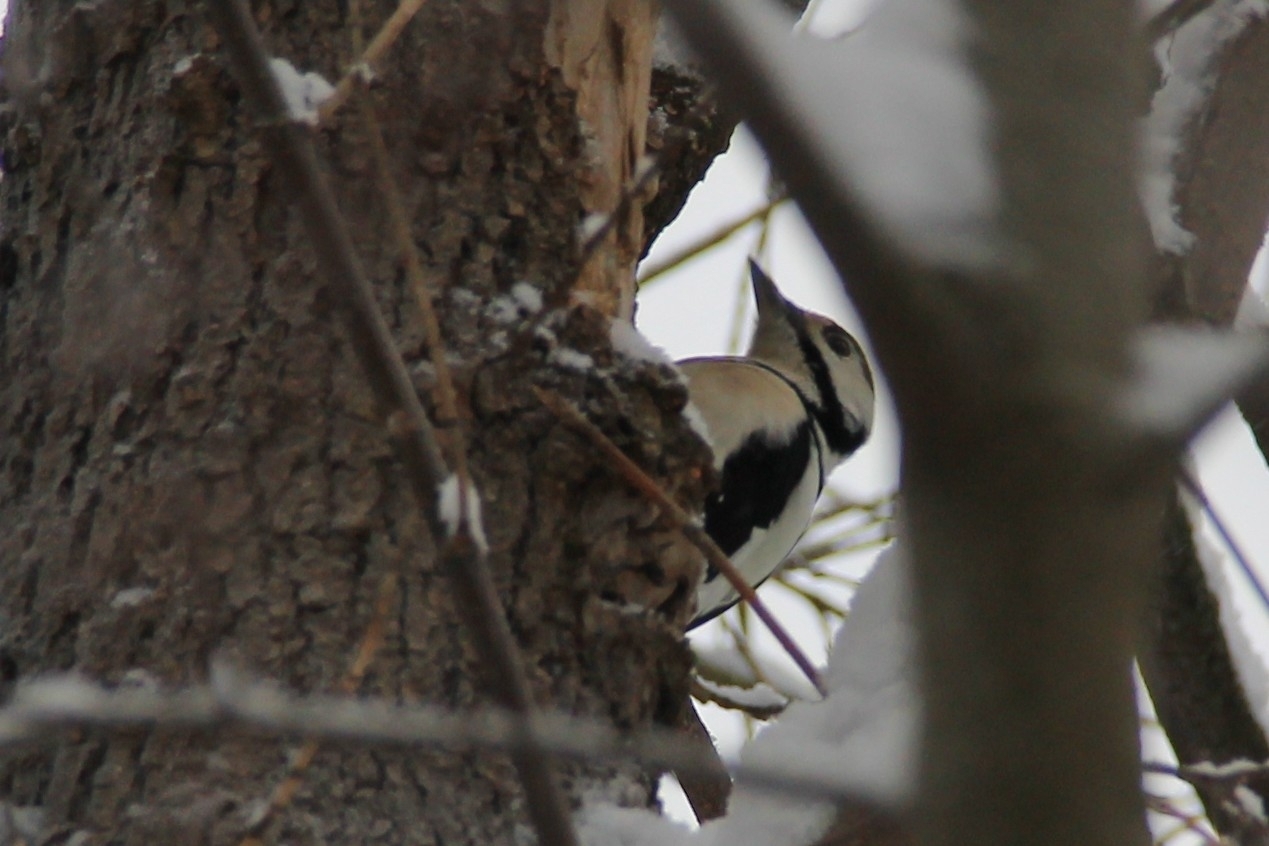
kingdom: Animalia
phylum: Chordata
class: Aves
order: Piciformes
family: Picidae
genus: Dendrocopos
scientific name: Dendrocopos major
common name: Great spotted woodpecker
